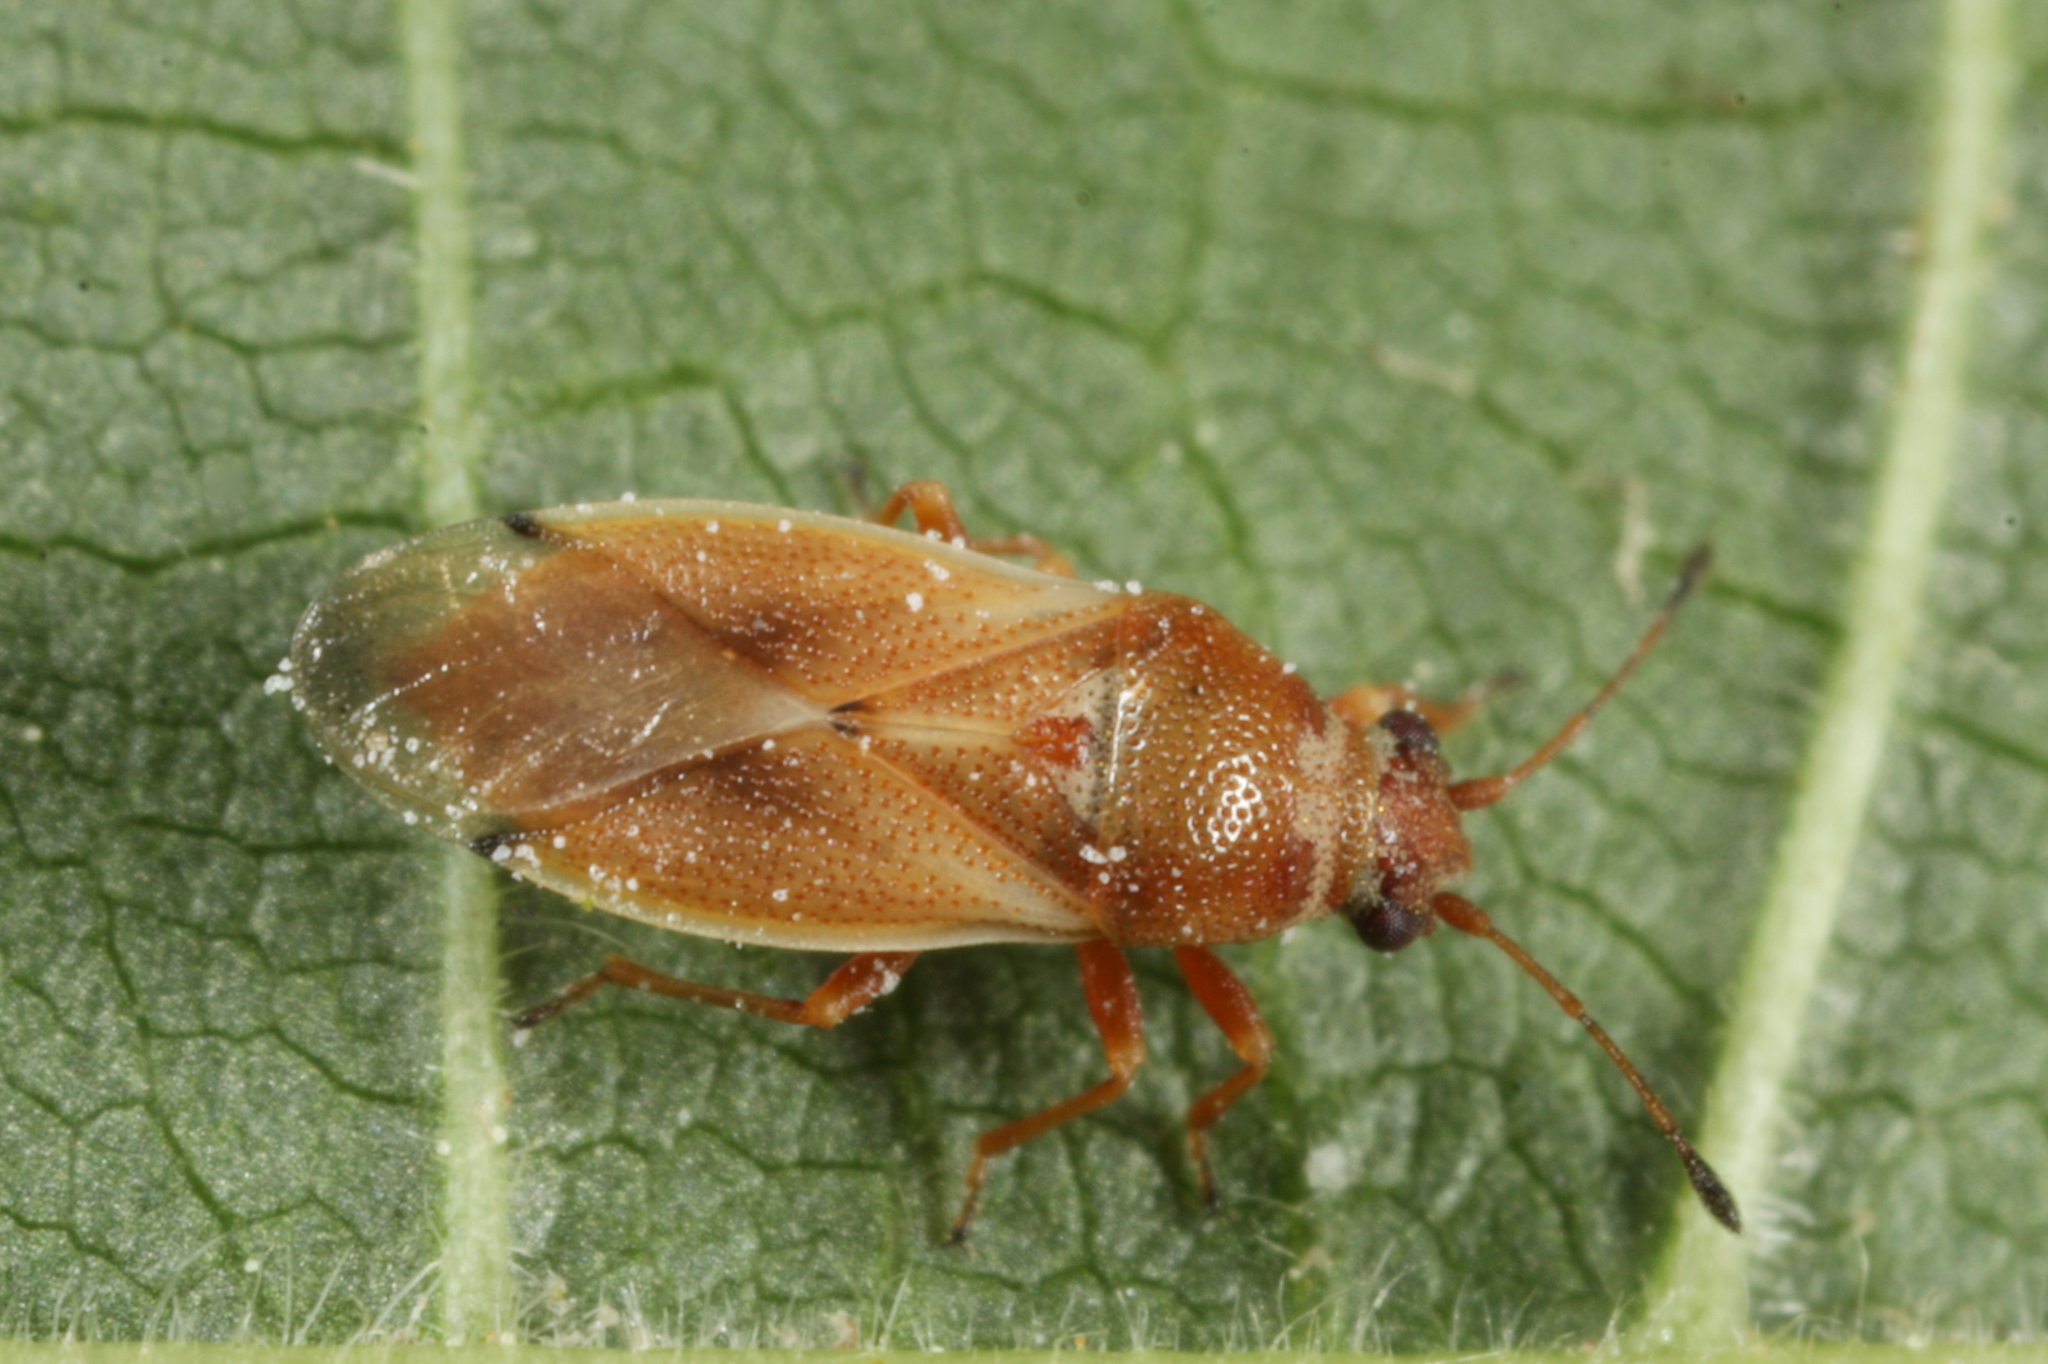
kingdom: Animalia
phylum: Arthropoda
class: Insecta
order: Hemiptera
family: Cymidae
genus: Cymus
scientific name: Cymus melanocephalus
